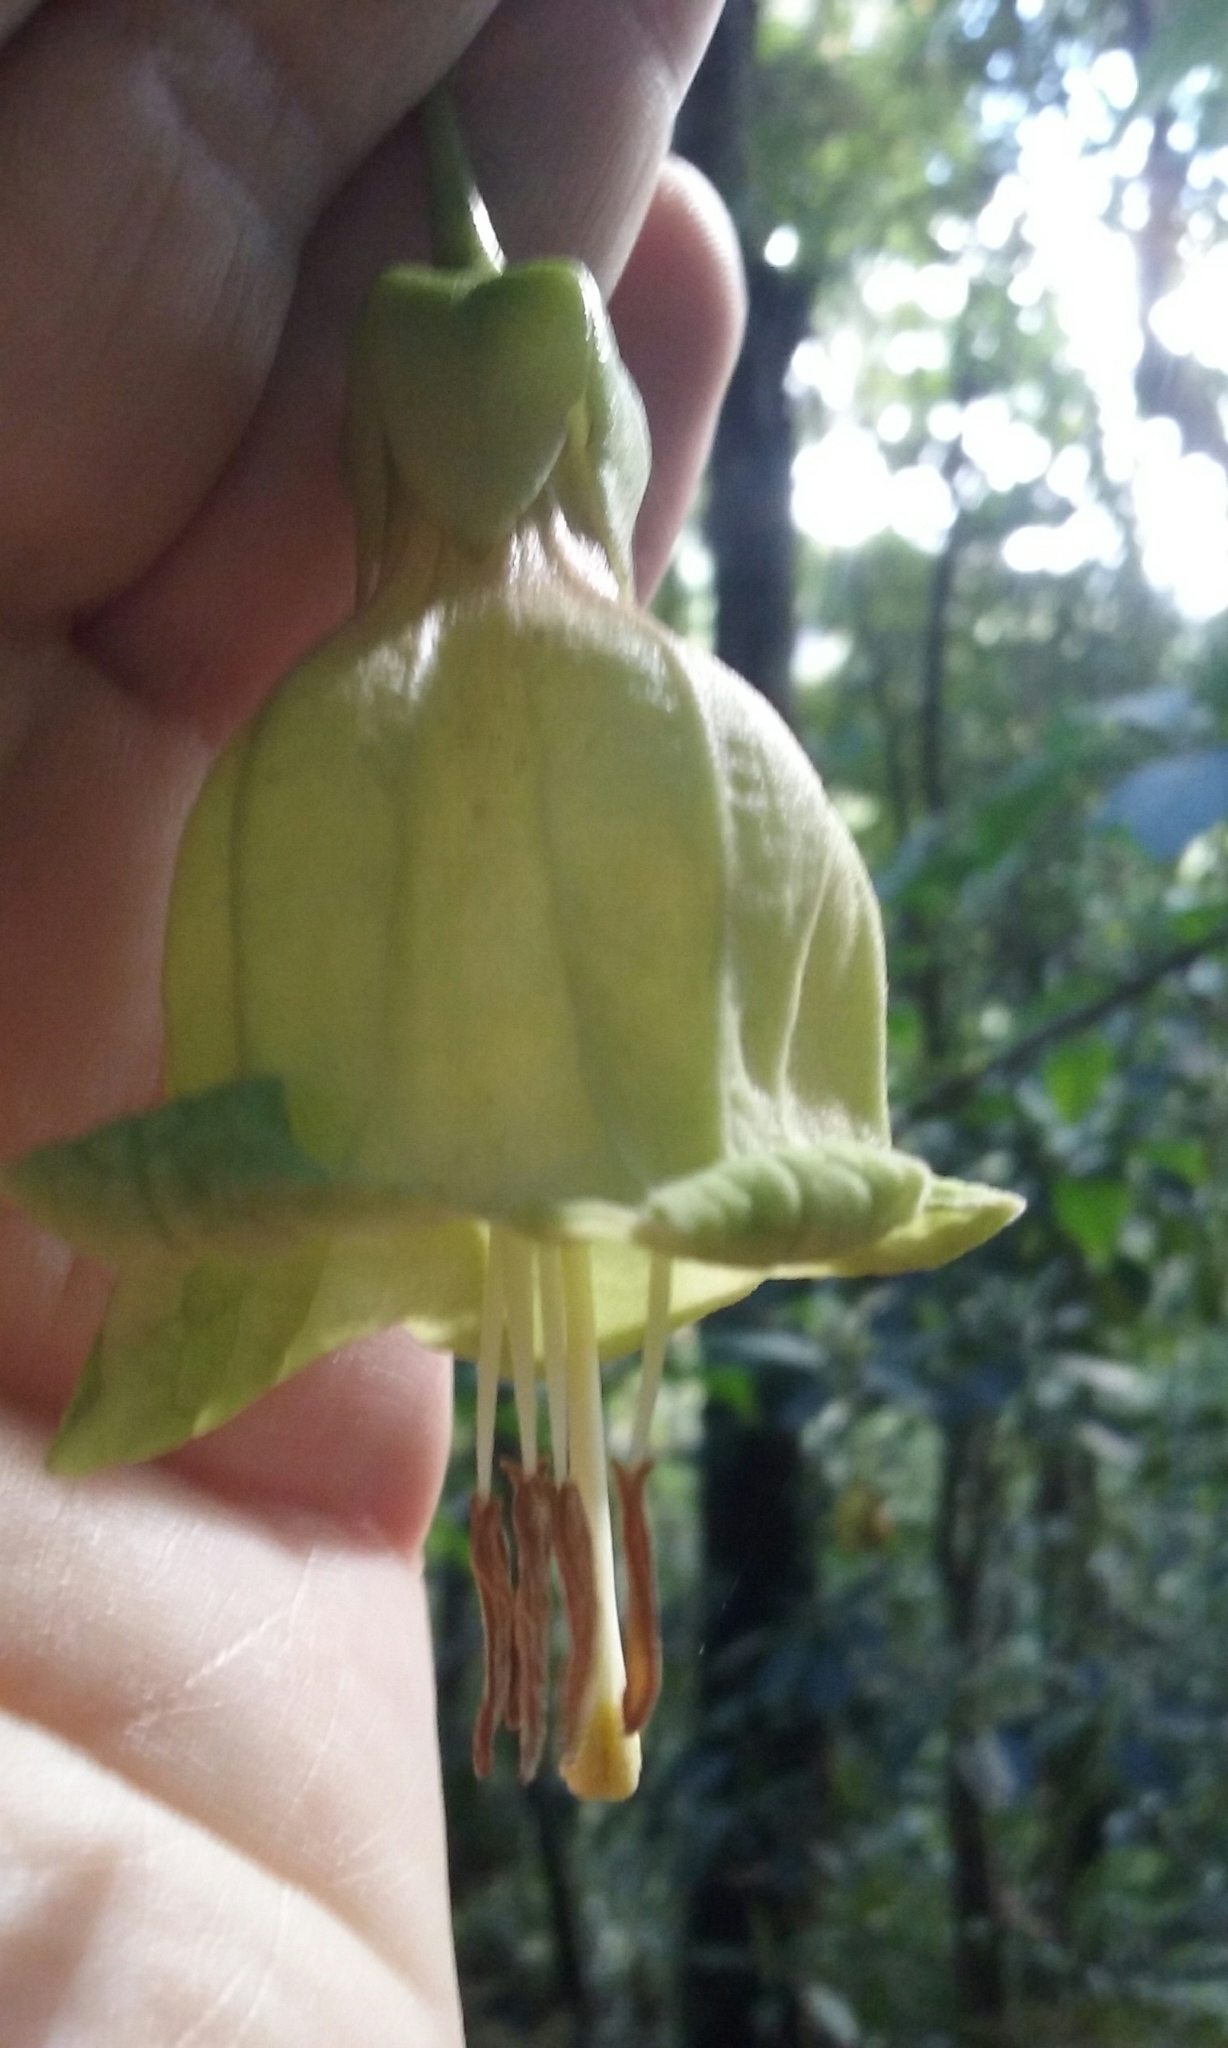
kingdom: Plantae
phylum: Tracheophyta
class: Magnoliopsida
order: Solanales
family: Solanaceae
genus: Merinthopodium
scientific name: Merinthopodium neuranthum
